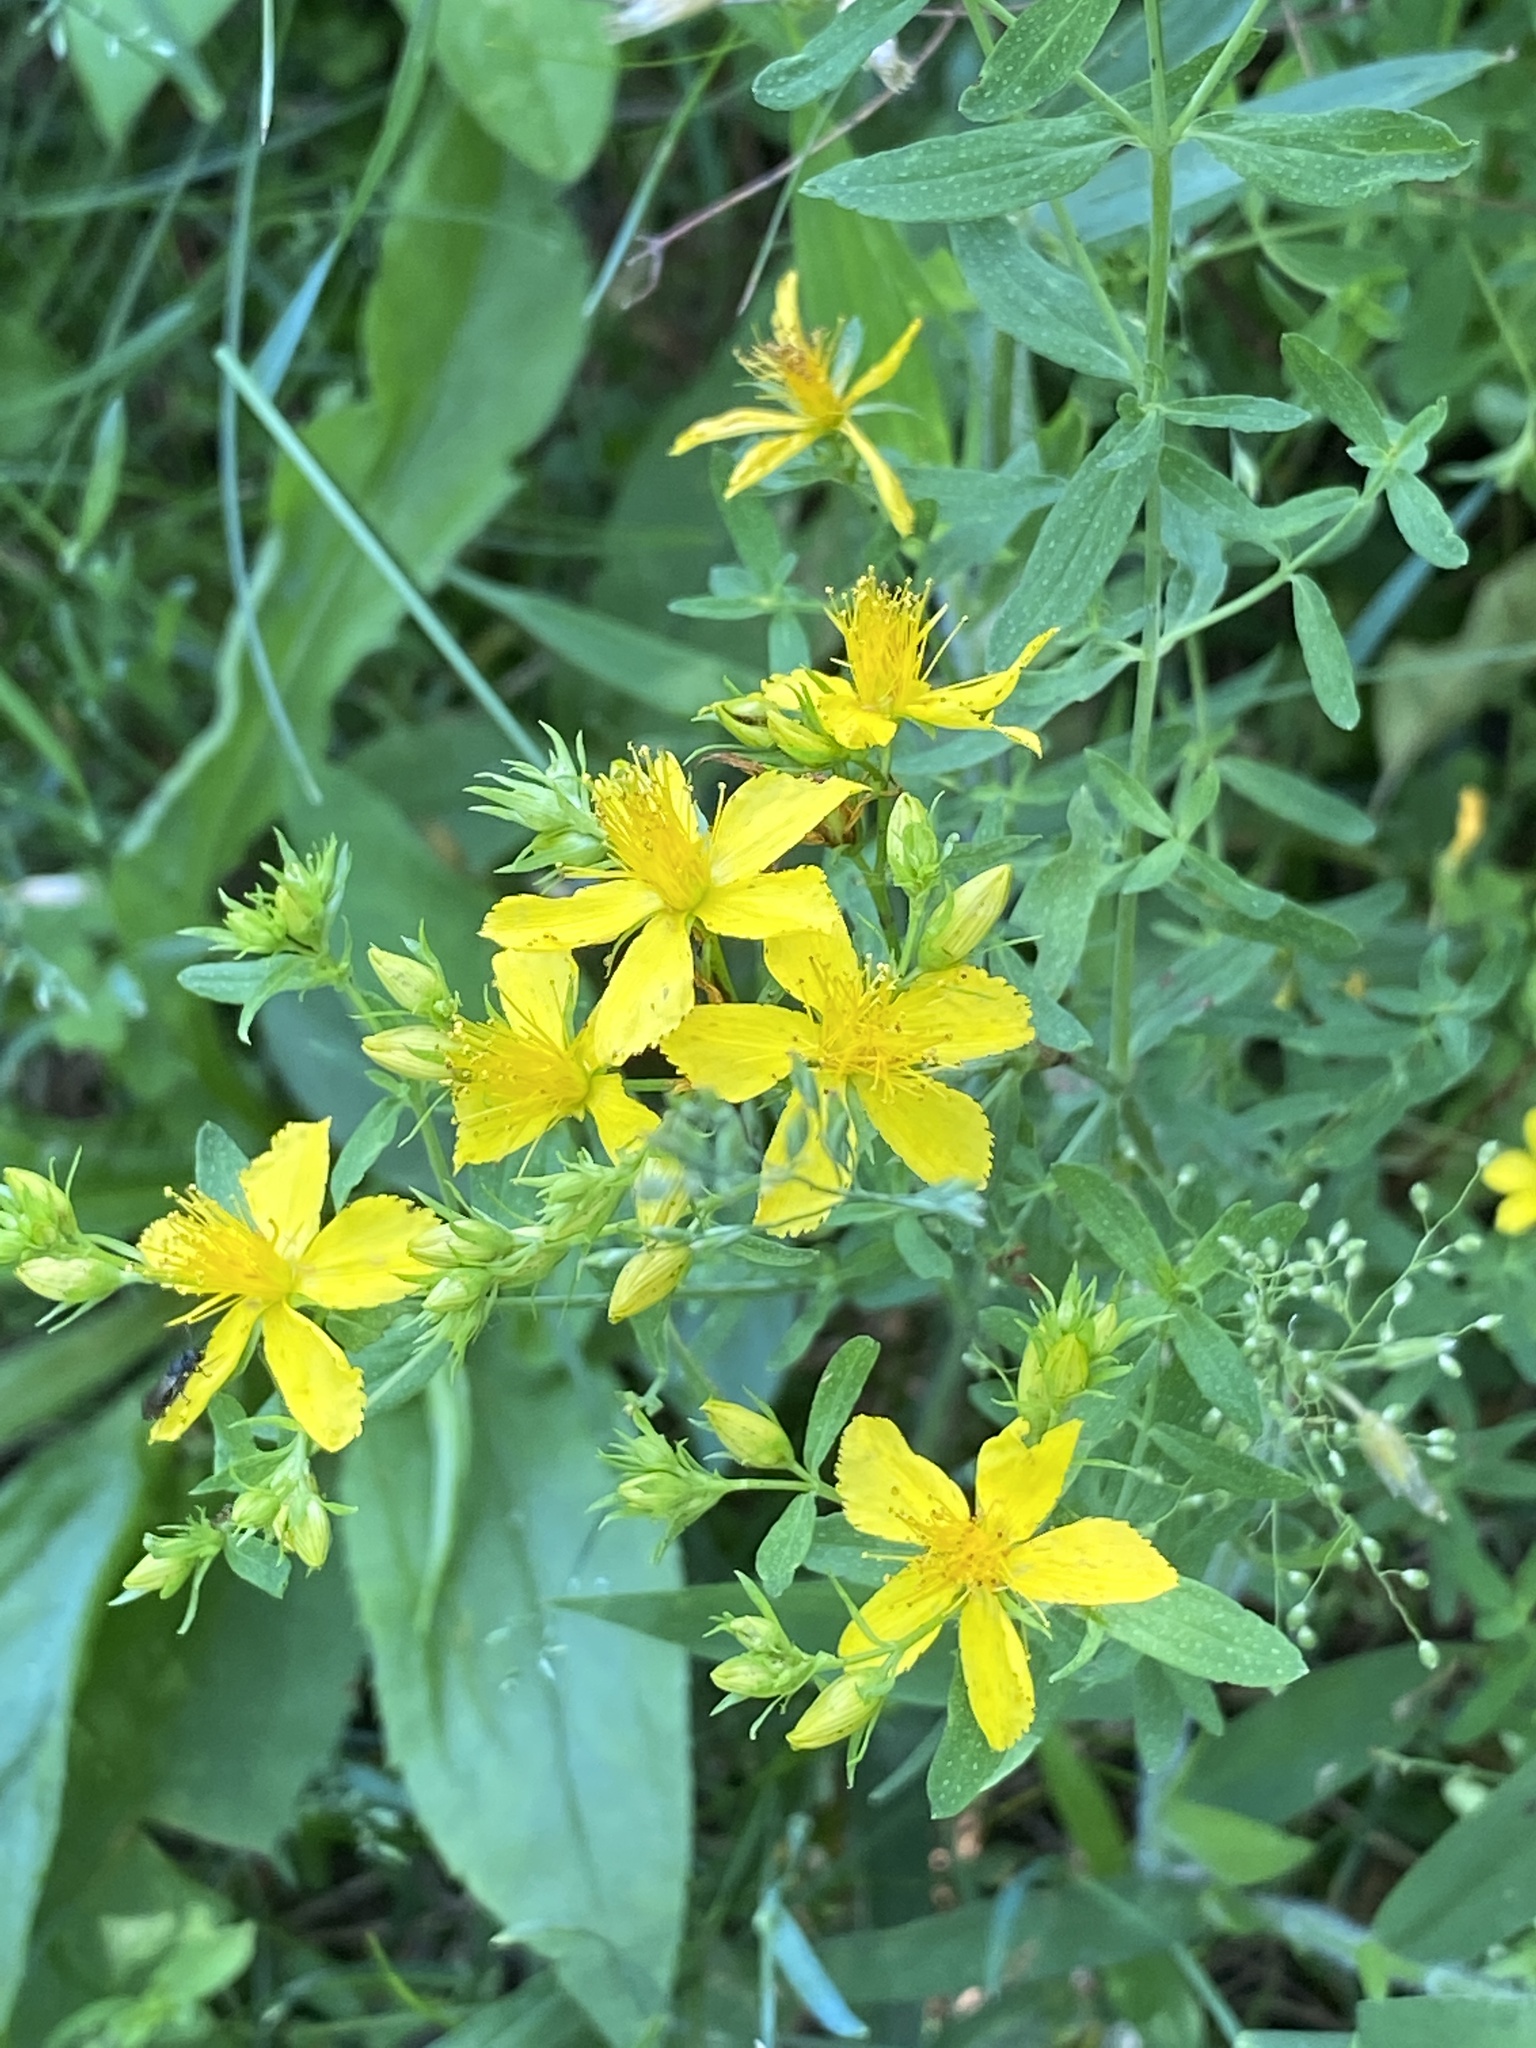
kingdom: Plantae
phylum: Tracheophyta
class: Magnoliopsida
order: Malpighiales
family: Hypericaceae
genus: Hypericum
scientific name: Hypericum perforatum
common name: Common st. johnswort
